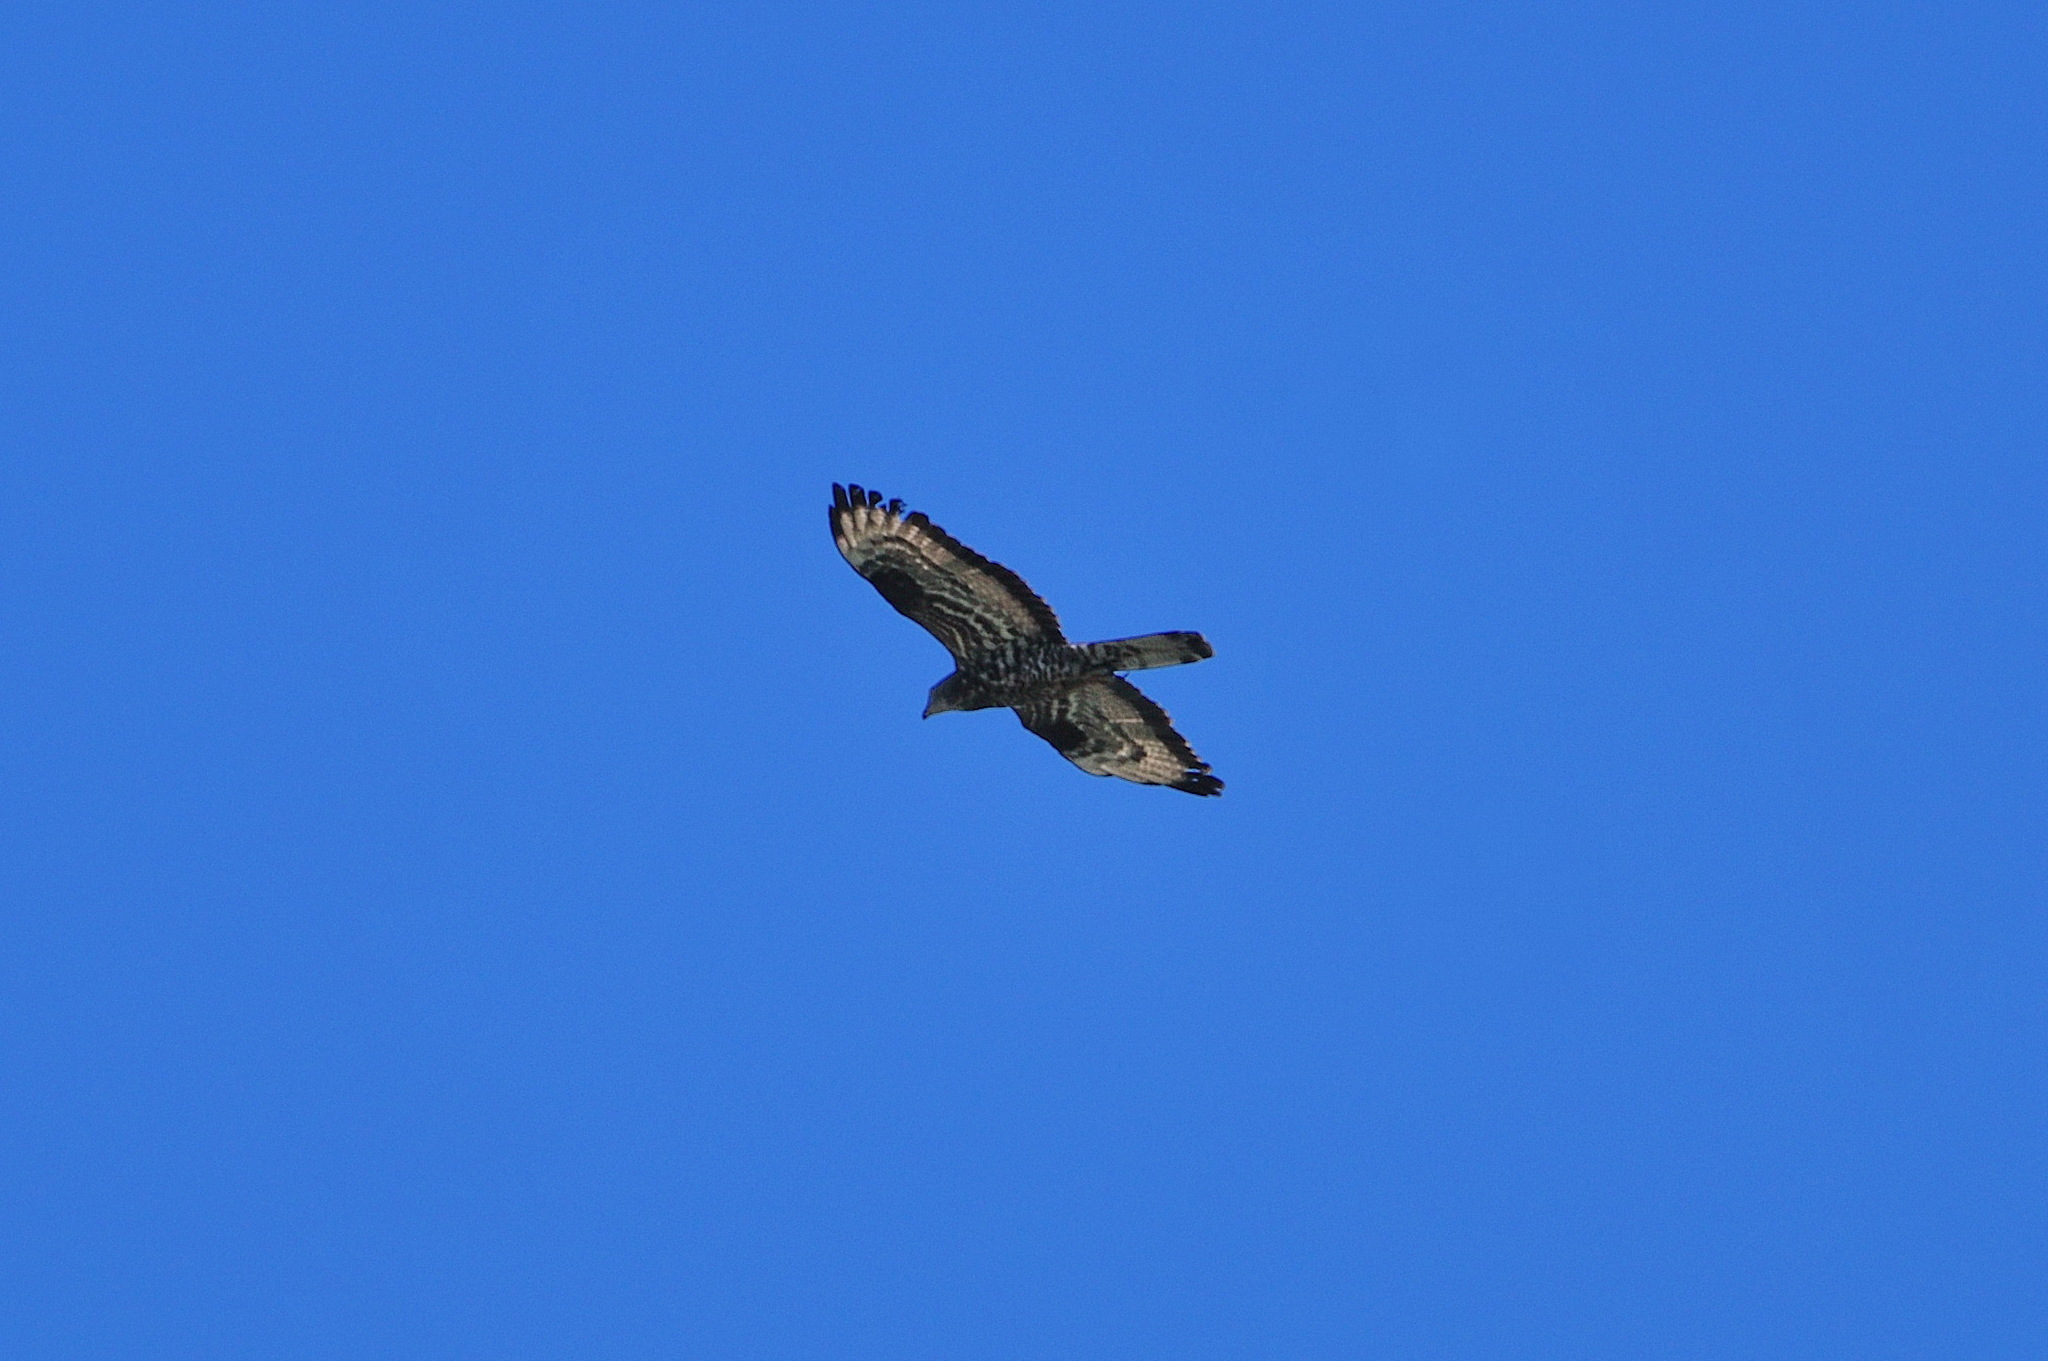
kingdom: Animalia
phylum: Chordata
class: Aves
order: Accipitriformes
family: Accipitridae
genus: Pernis
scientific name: Pernis apivorus
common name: European honey buzzard
